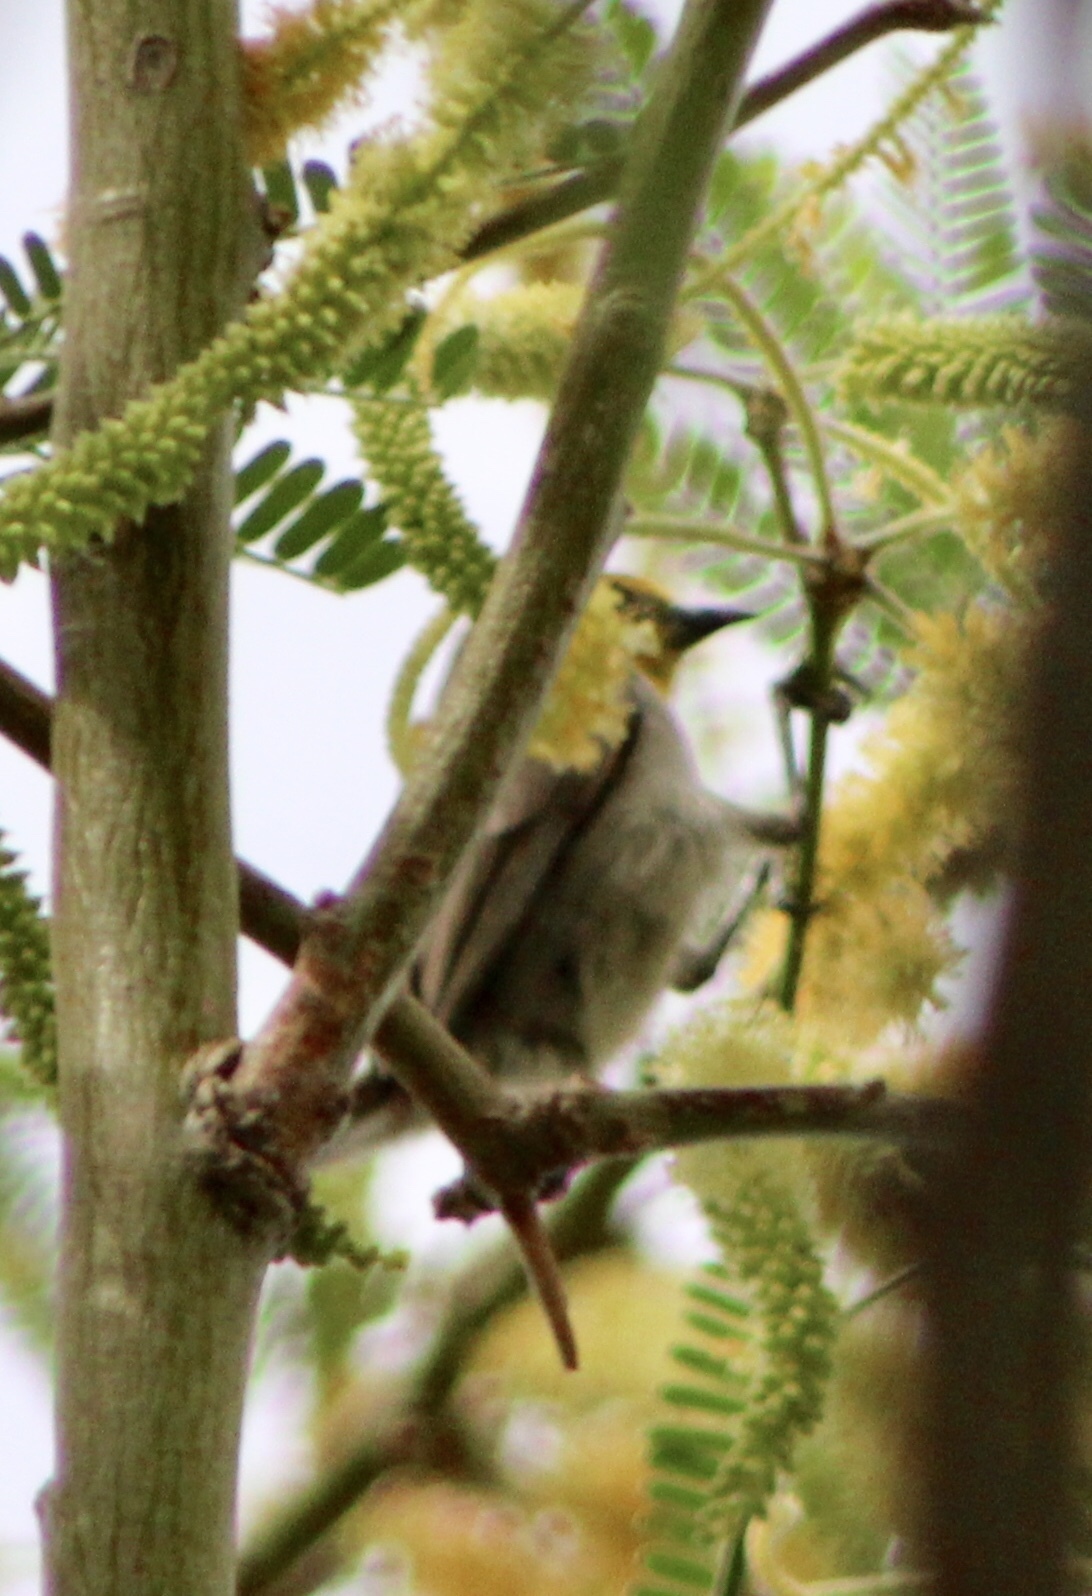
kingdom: Animalia
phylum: Chordata
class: Aves
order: Passeriformes
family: Remizidae
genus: Auriparus
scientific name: Auriparus flaviceps
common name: Verdin
